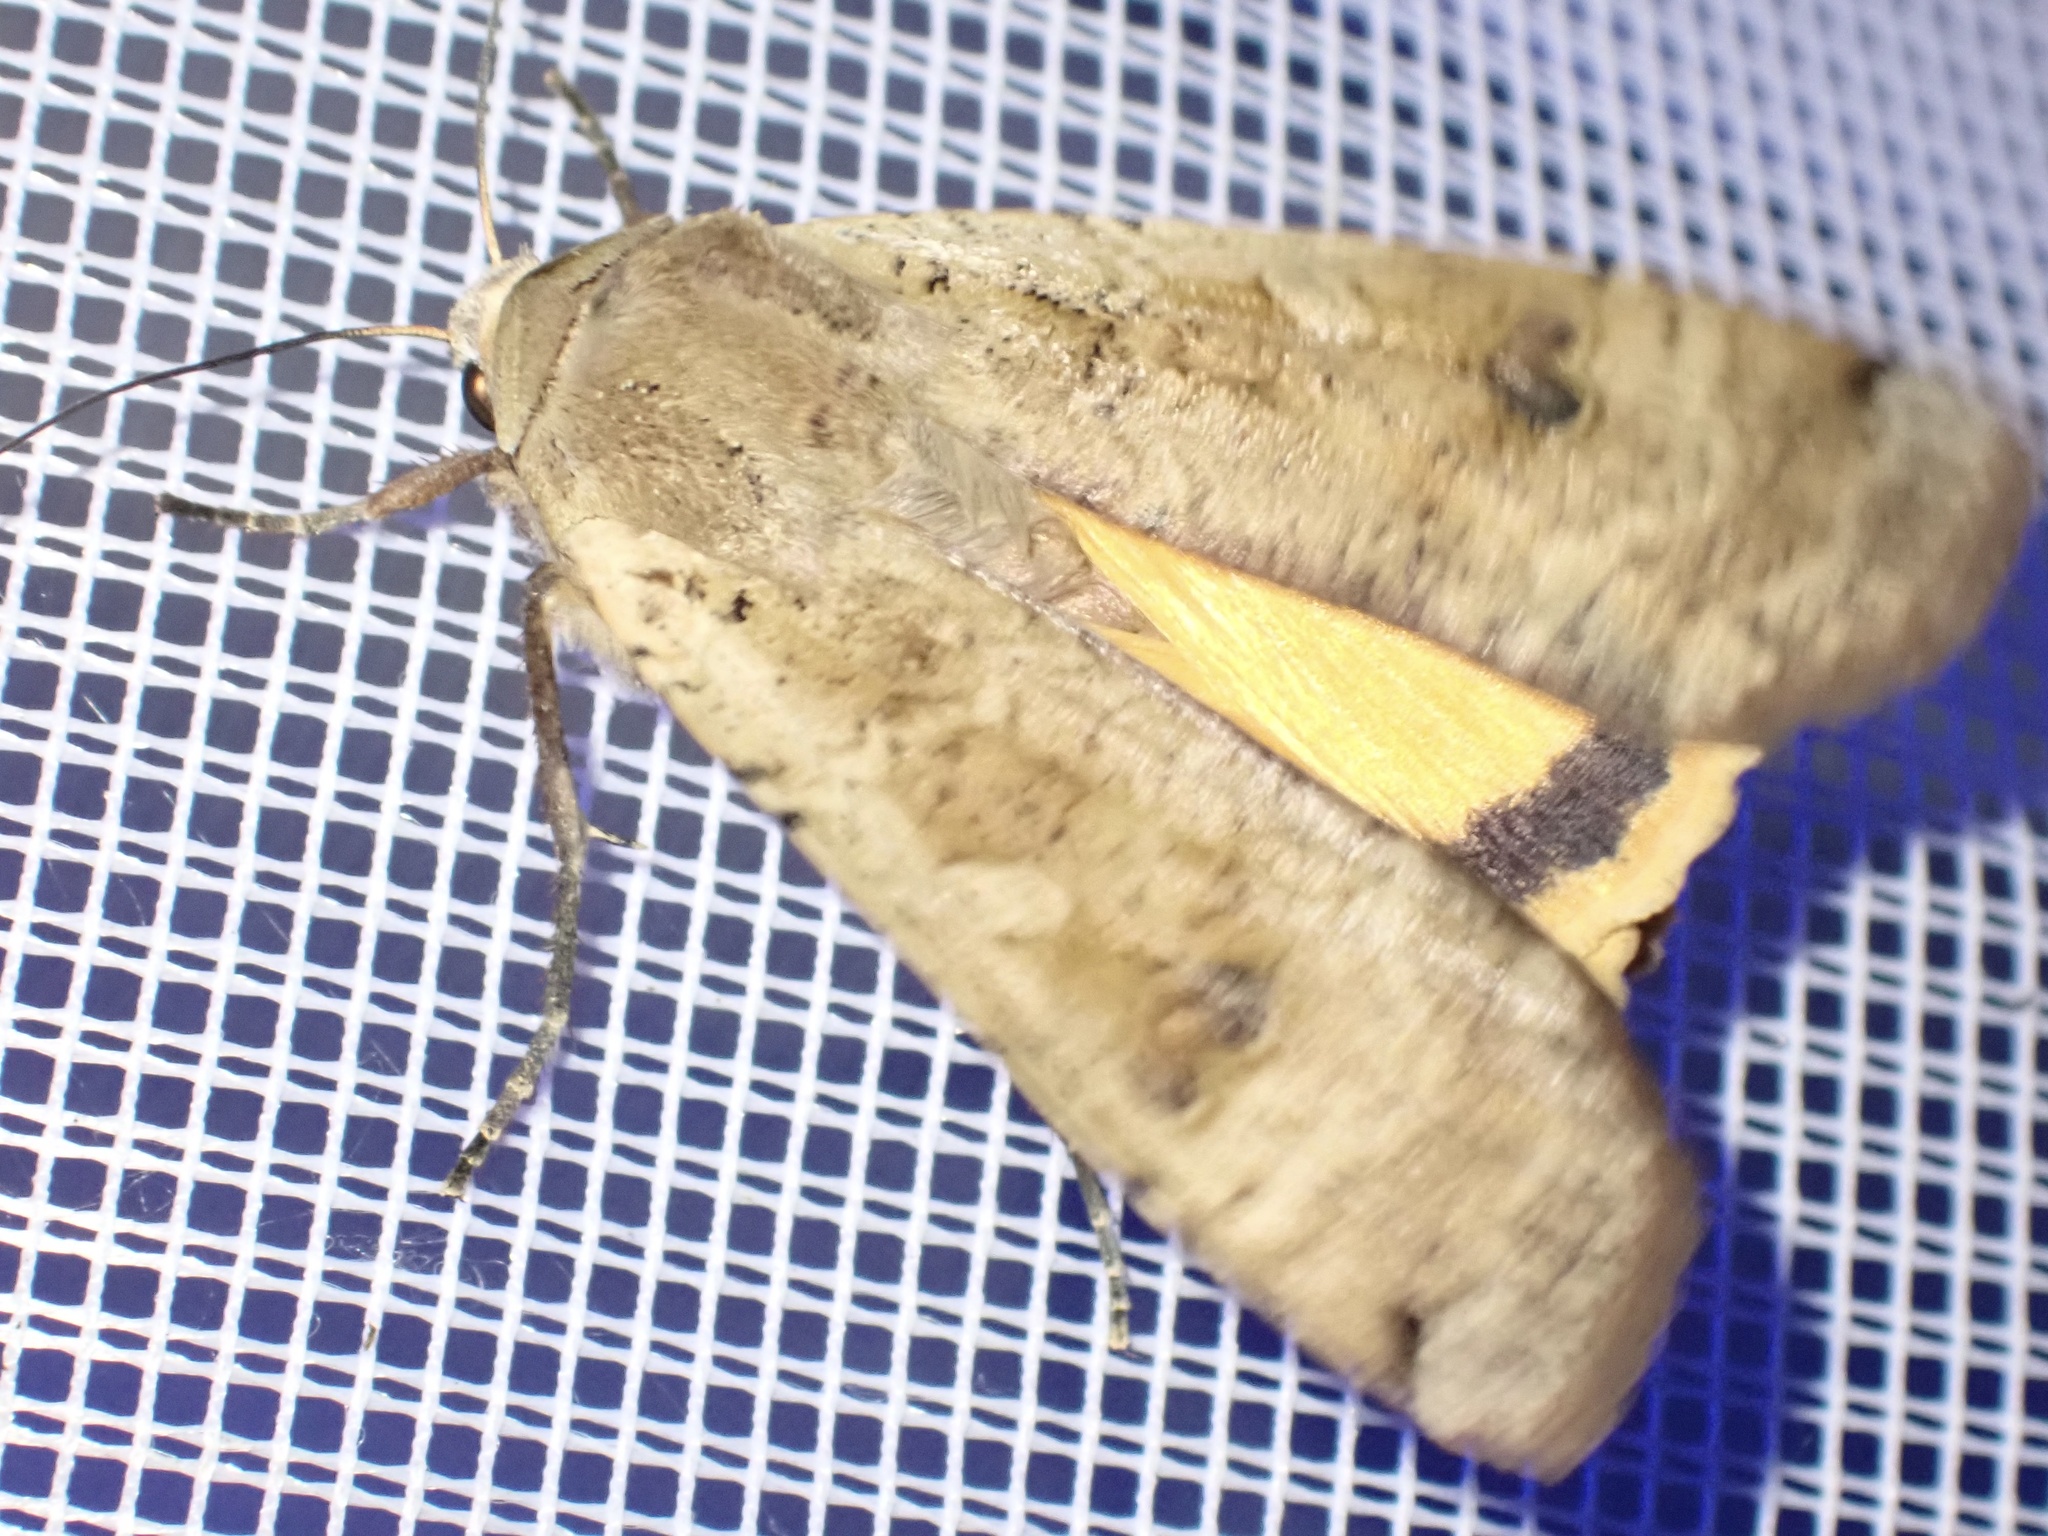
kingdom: Animalia
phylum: Arthropoda
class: Insecta
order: Lepidoptera
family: Noctuidae
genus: Noctua
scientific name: Noctua pronuba
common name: Large yellow underwing
